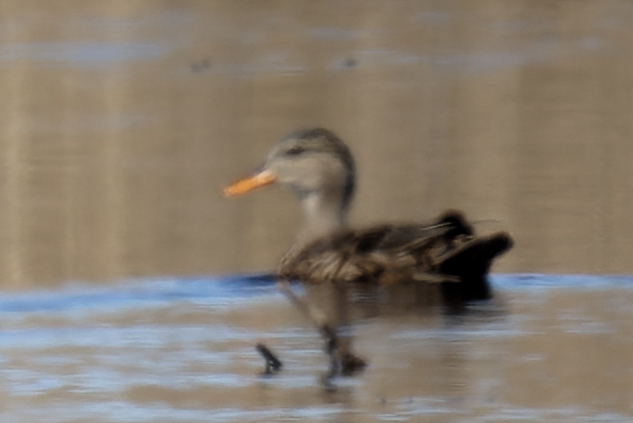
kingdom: Animalia
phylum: Chordata
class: Aves
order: Anseriformes
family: Anatidae
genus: Mareca
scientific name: Mareca strepera
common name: Gadwall
